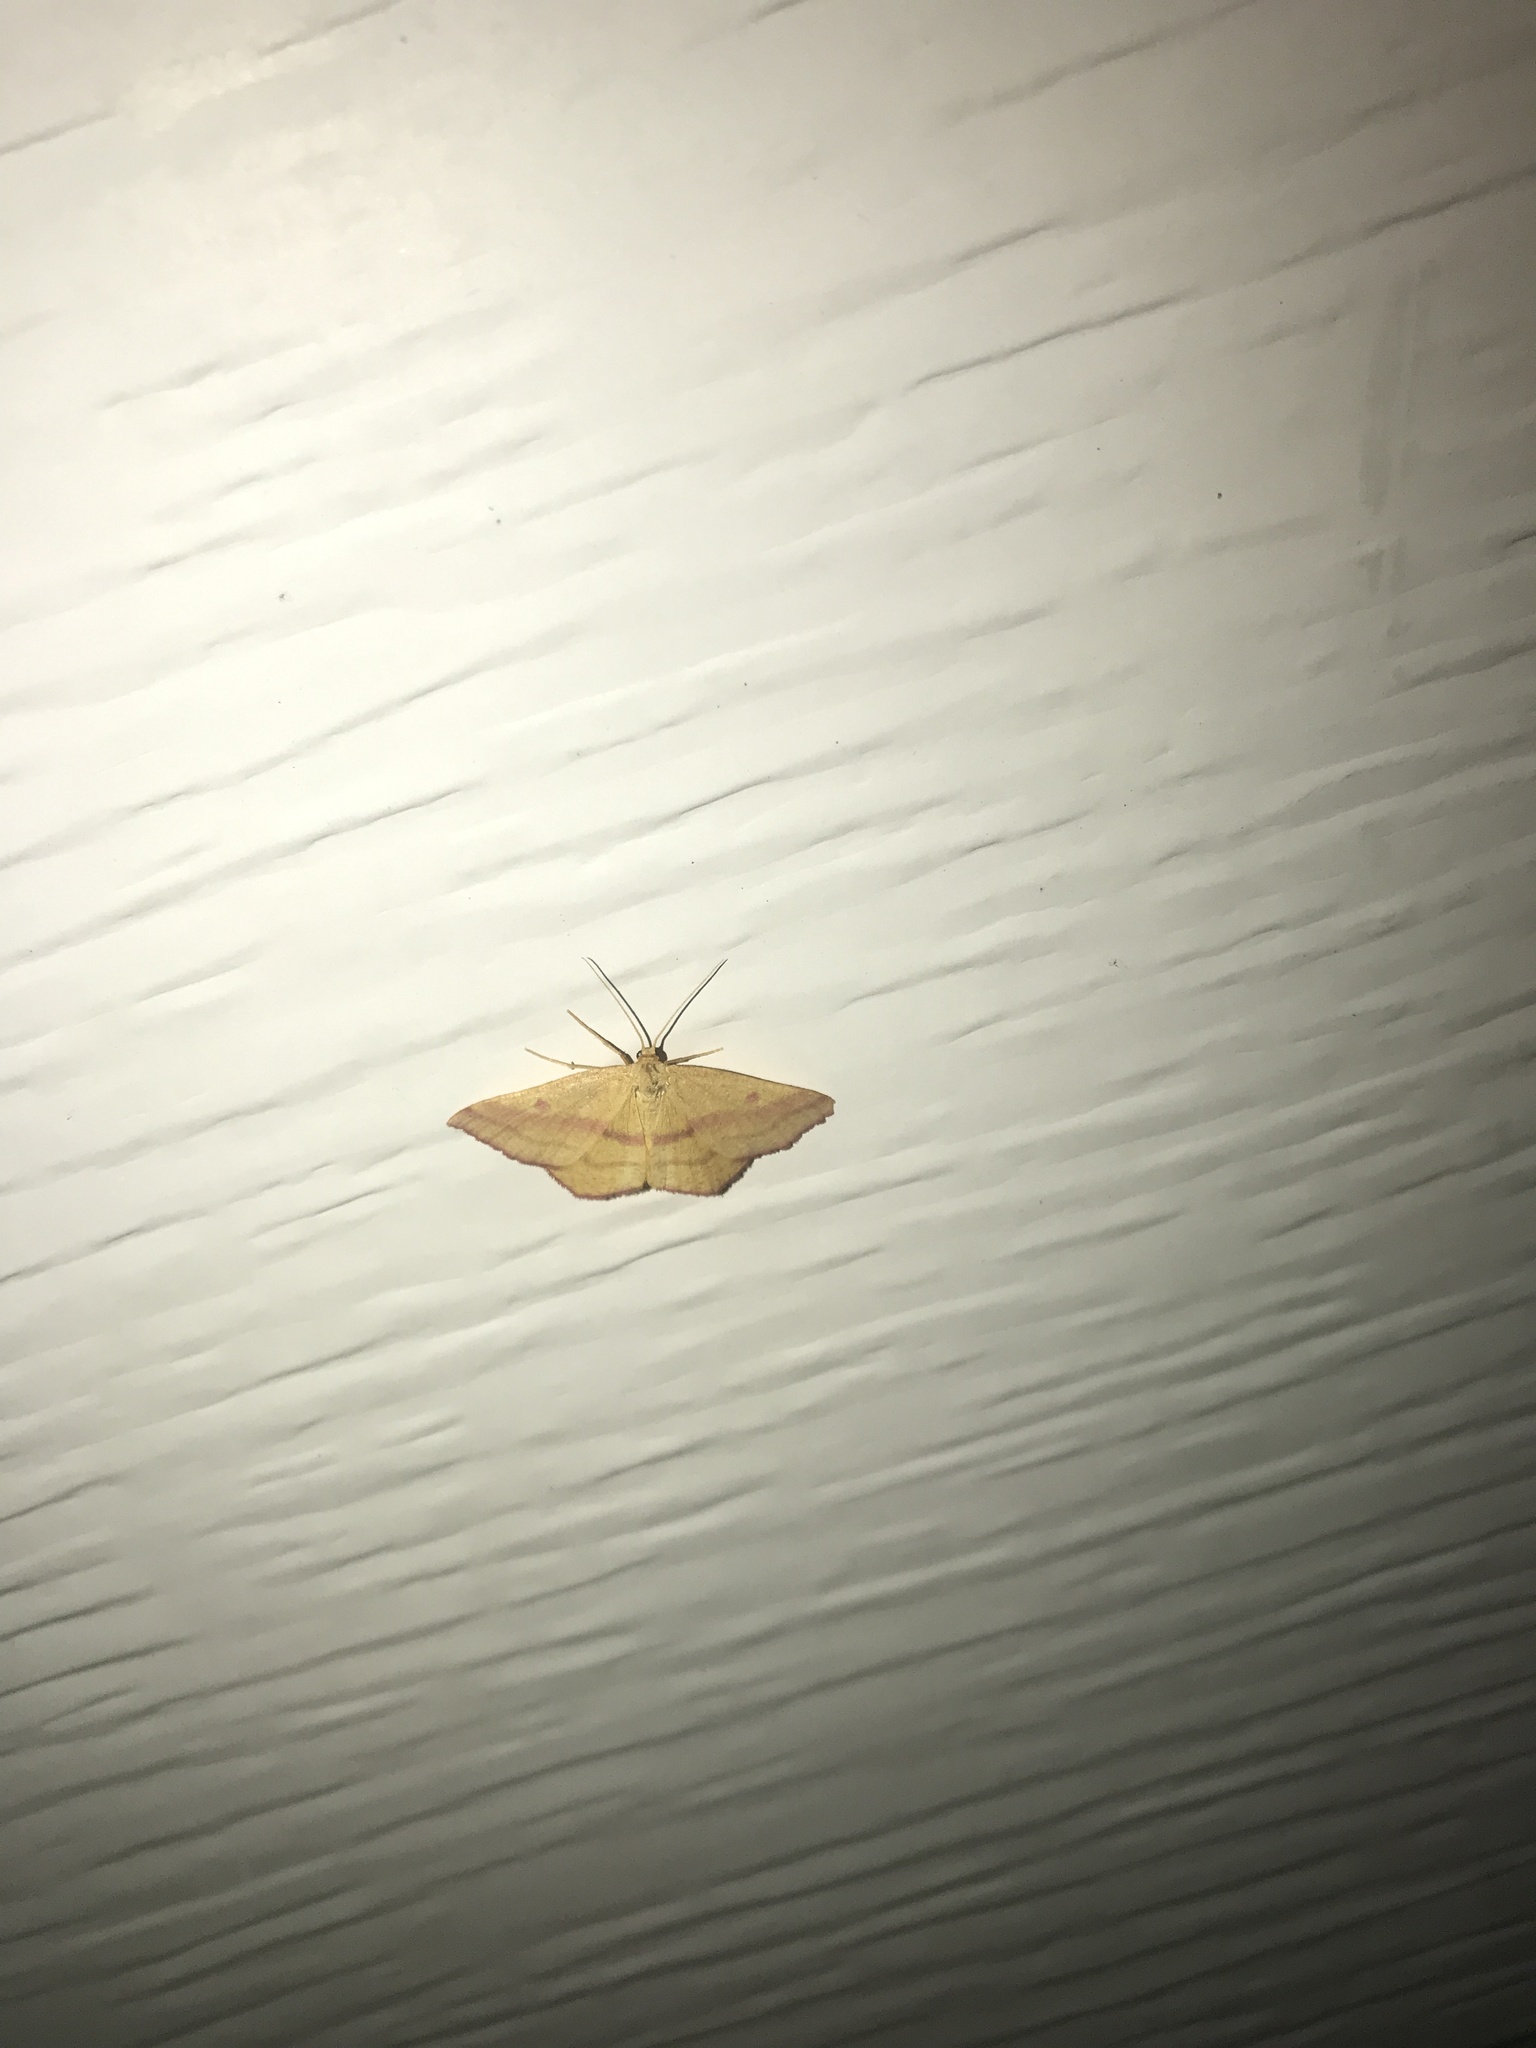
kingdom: Animalia
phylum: Arthropoda
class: Insecta
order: Lepidoptera
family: Geometridae
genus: Haematopis
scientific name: Haematopis grataria
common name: Chickweed geometer
